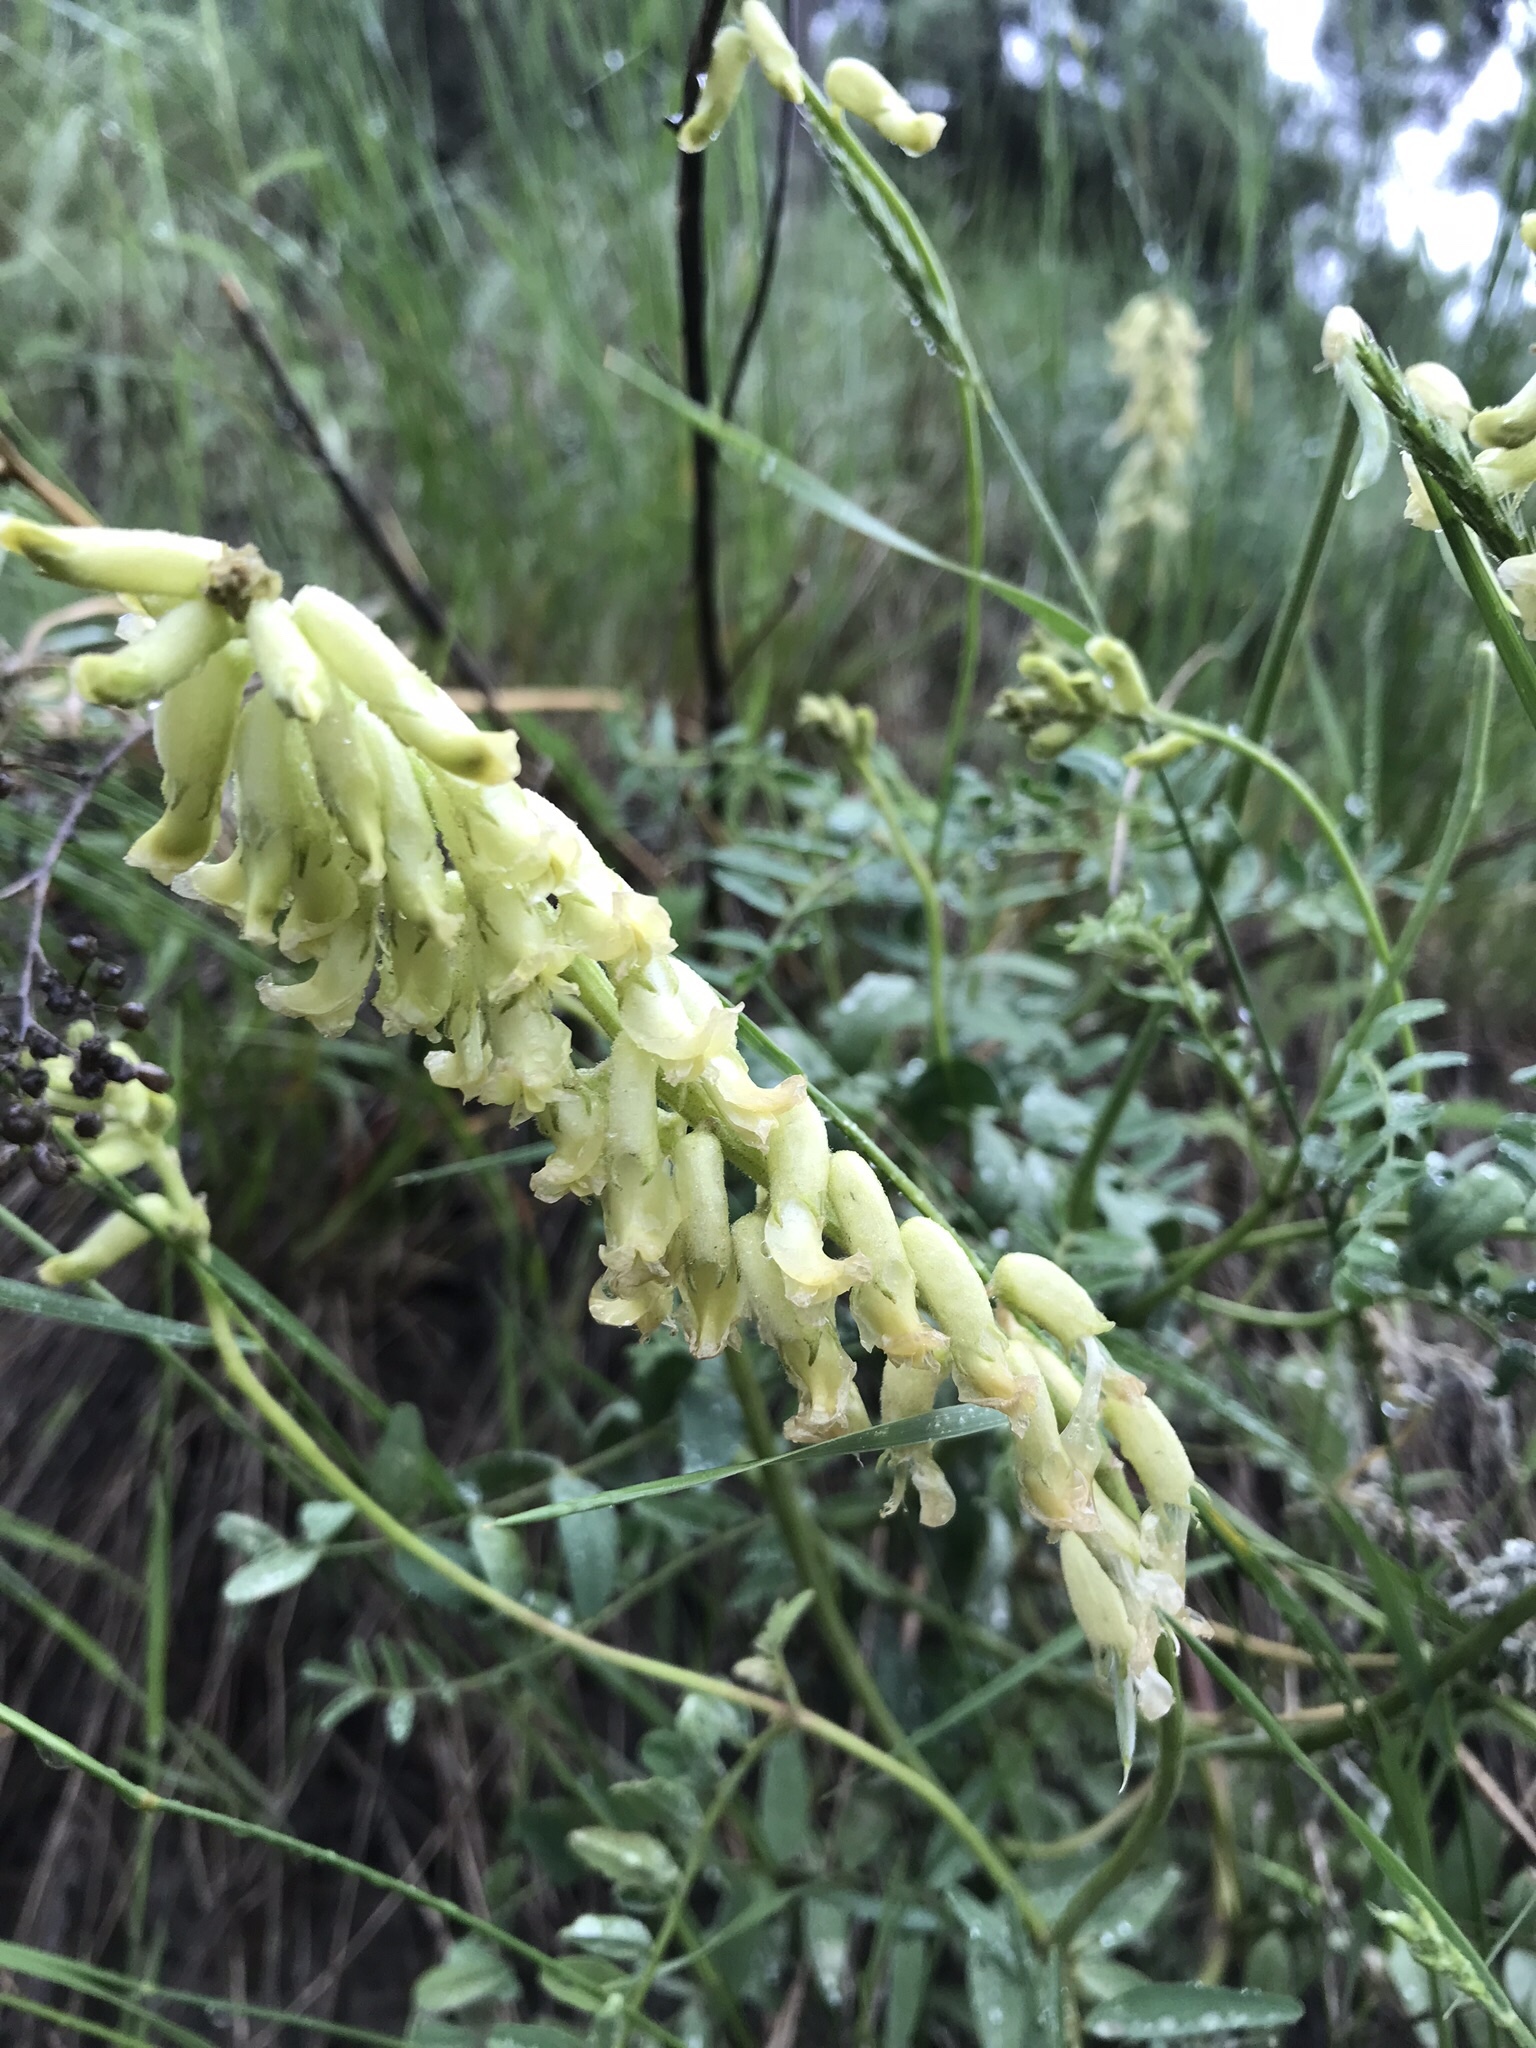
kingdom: Plantae
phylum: Tracheophyta
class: Magnoliopsida
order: Fabales
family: Fabaceae
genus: Astragalus
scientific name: Astragalus collinus
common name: Hill milk-vetch
